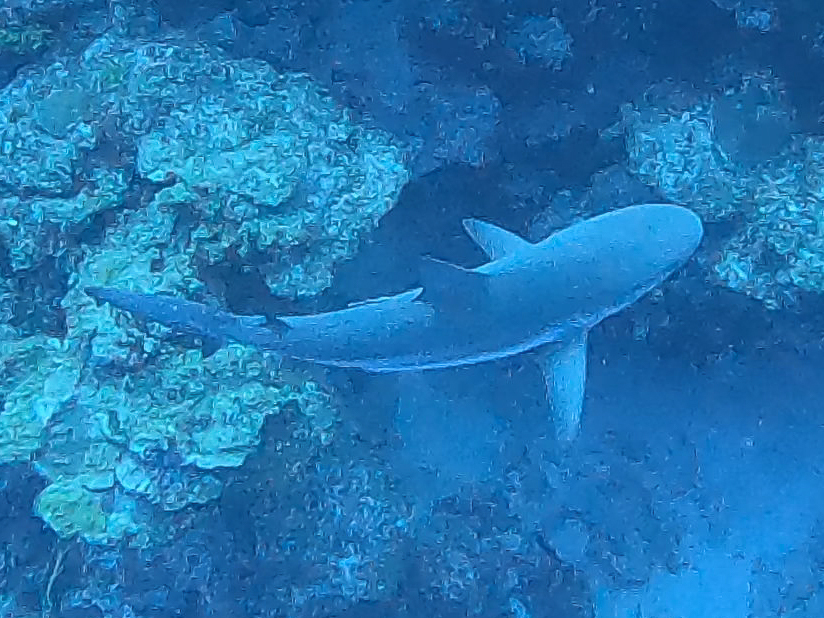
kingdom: Animalia
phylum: Chordata
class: Elasmobranchii
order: Carcharhiniformes
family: Carcharhinidae
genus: Carcharhinus
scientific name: Carcharhinus perezii
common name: Reef shark
